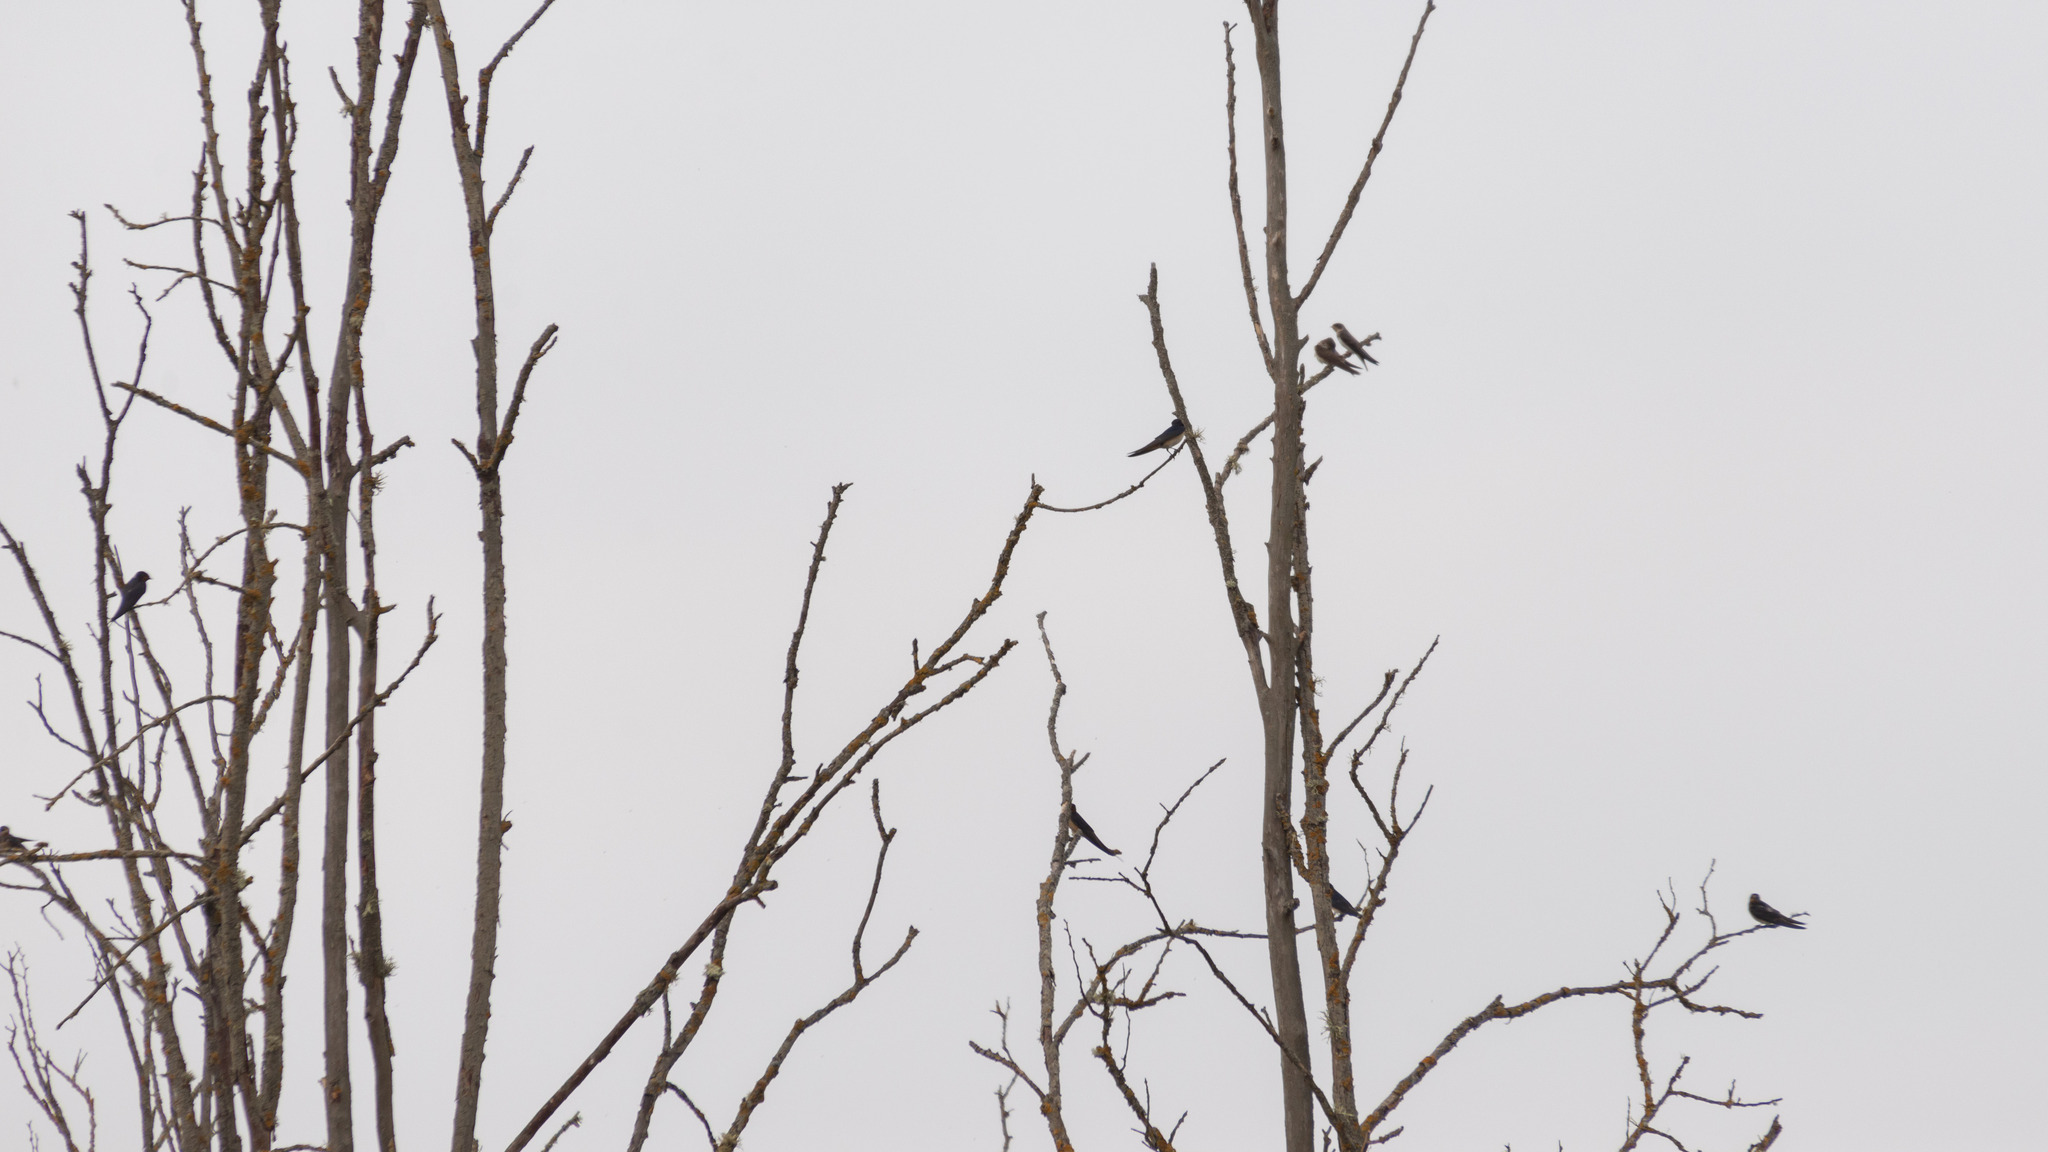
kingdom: Animalia
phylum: Chordata
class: Aves
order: Passeriformes
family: Hirundinidae
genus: Hirundo
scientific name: Hirundo rustica
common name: Barn swallow
